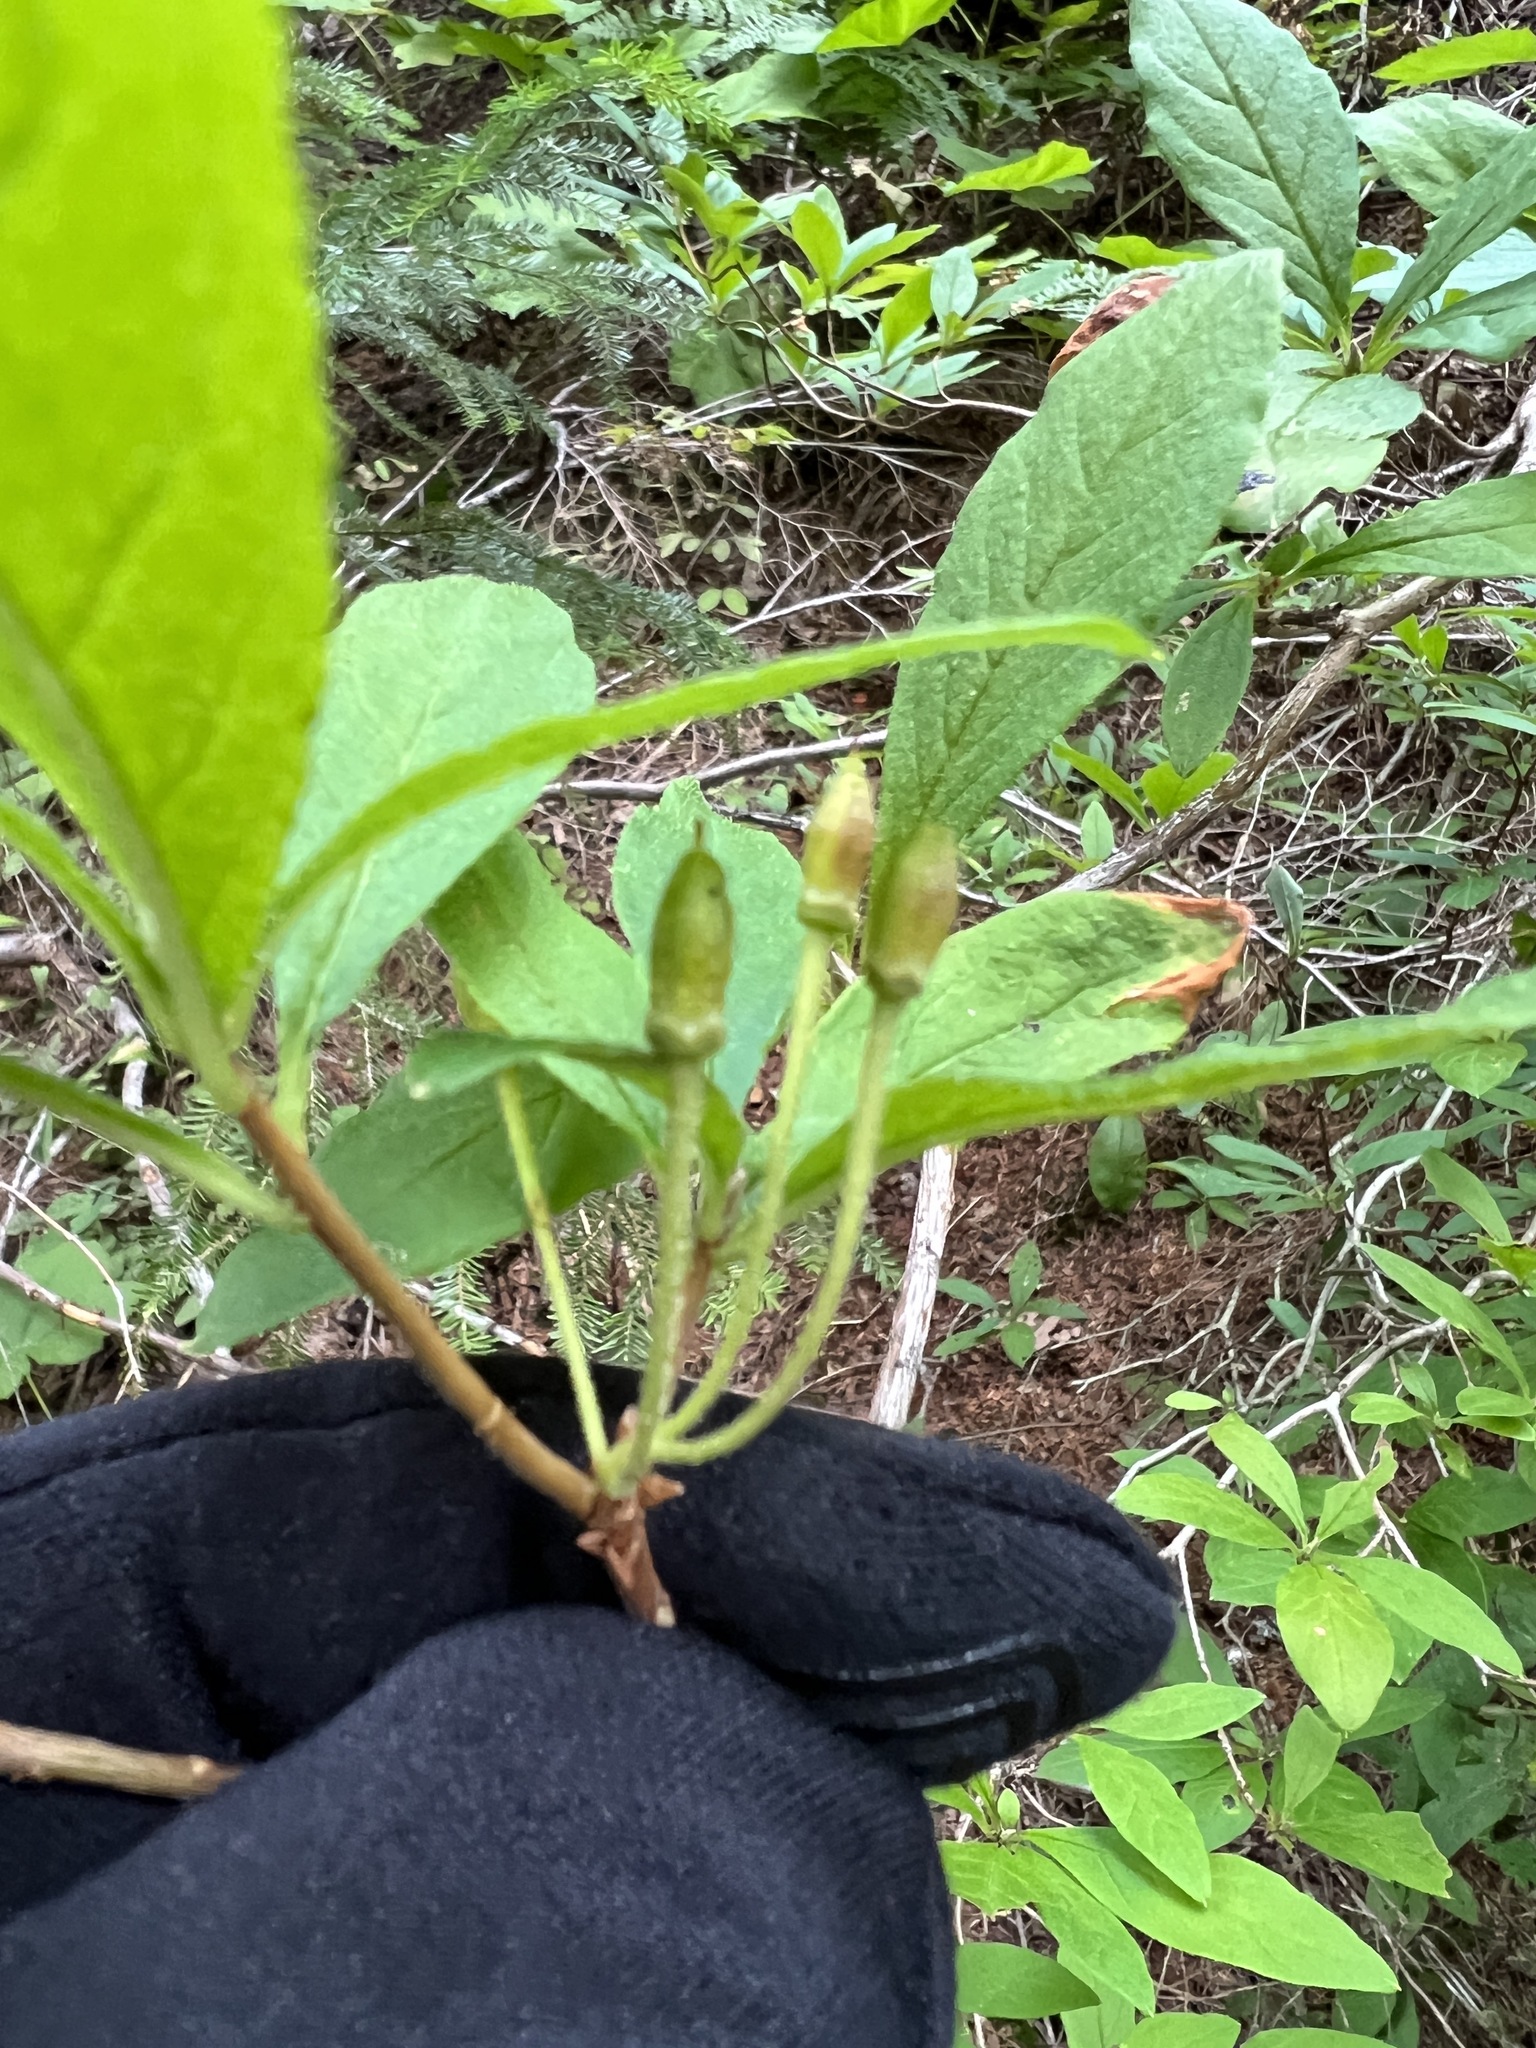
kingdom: Plantae
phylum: Tracheophyta
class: Magnoliopsida
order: Ericales
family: Ericaceae
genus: Rhododendron
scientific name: Rhododendron menziesii
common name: Pacific menziesia
